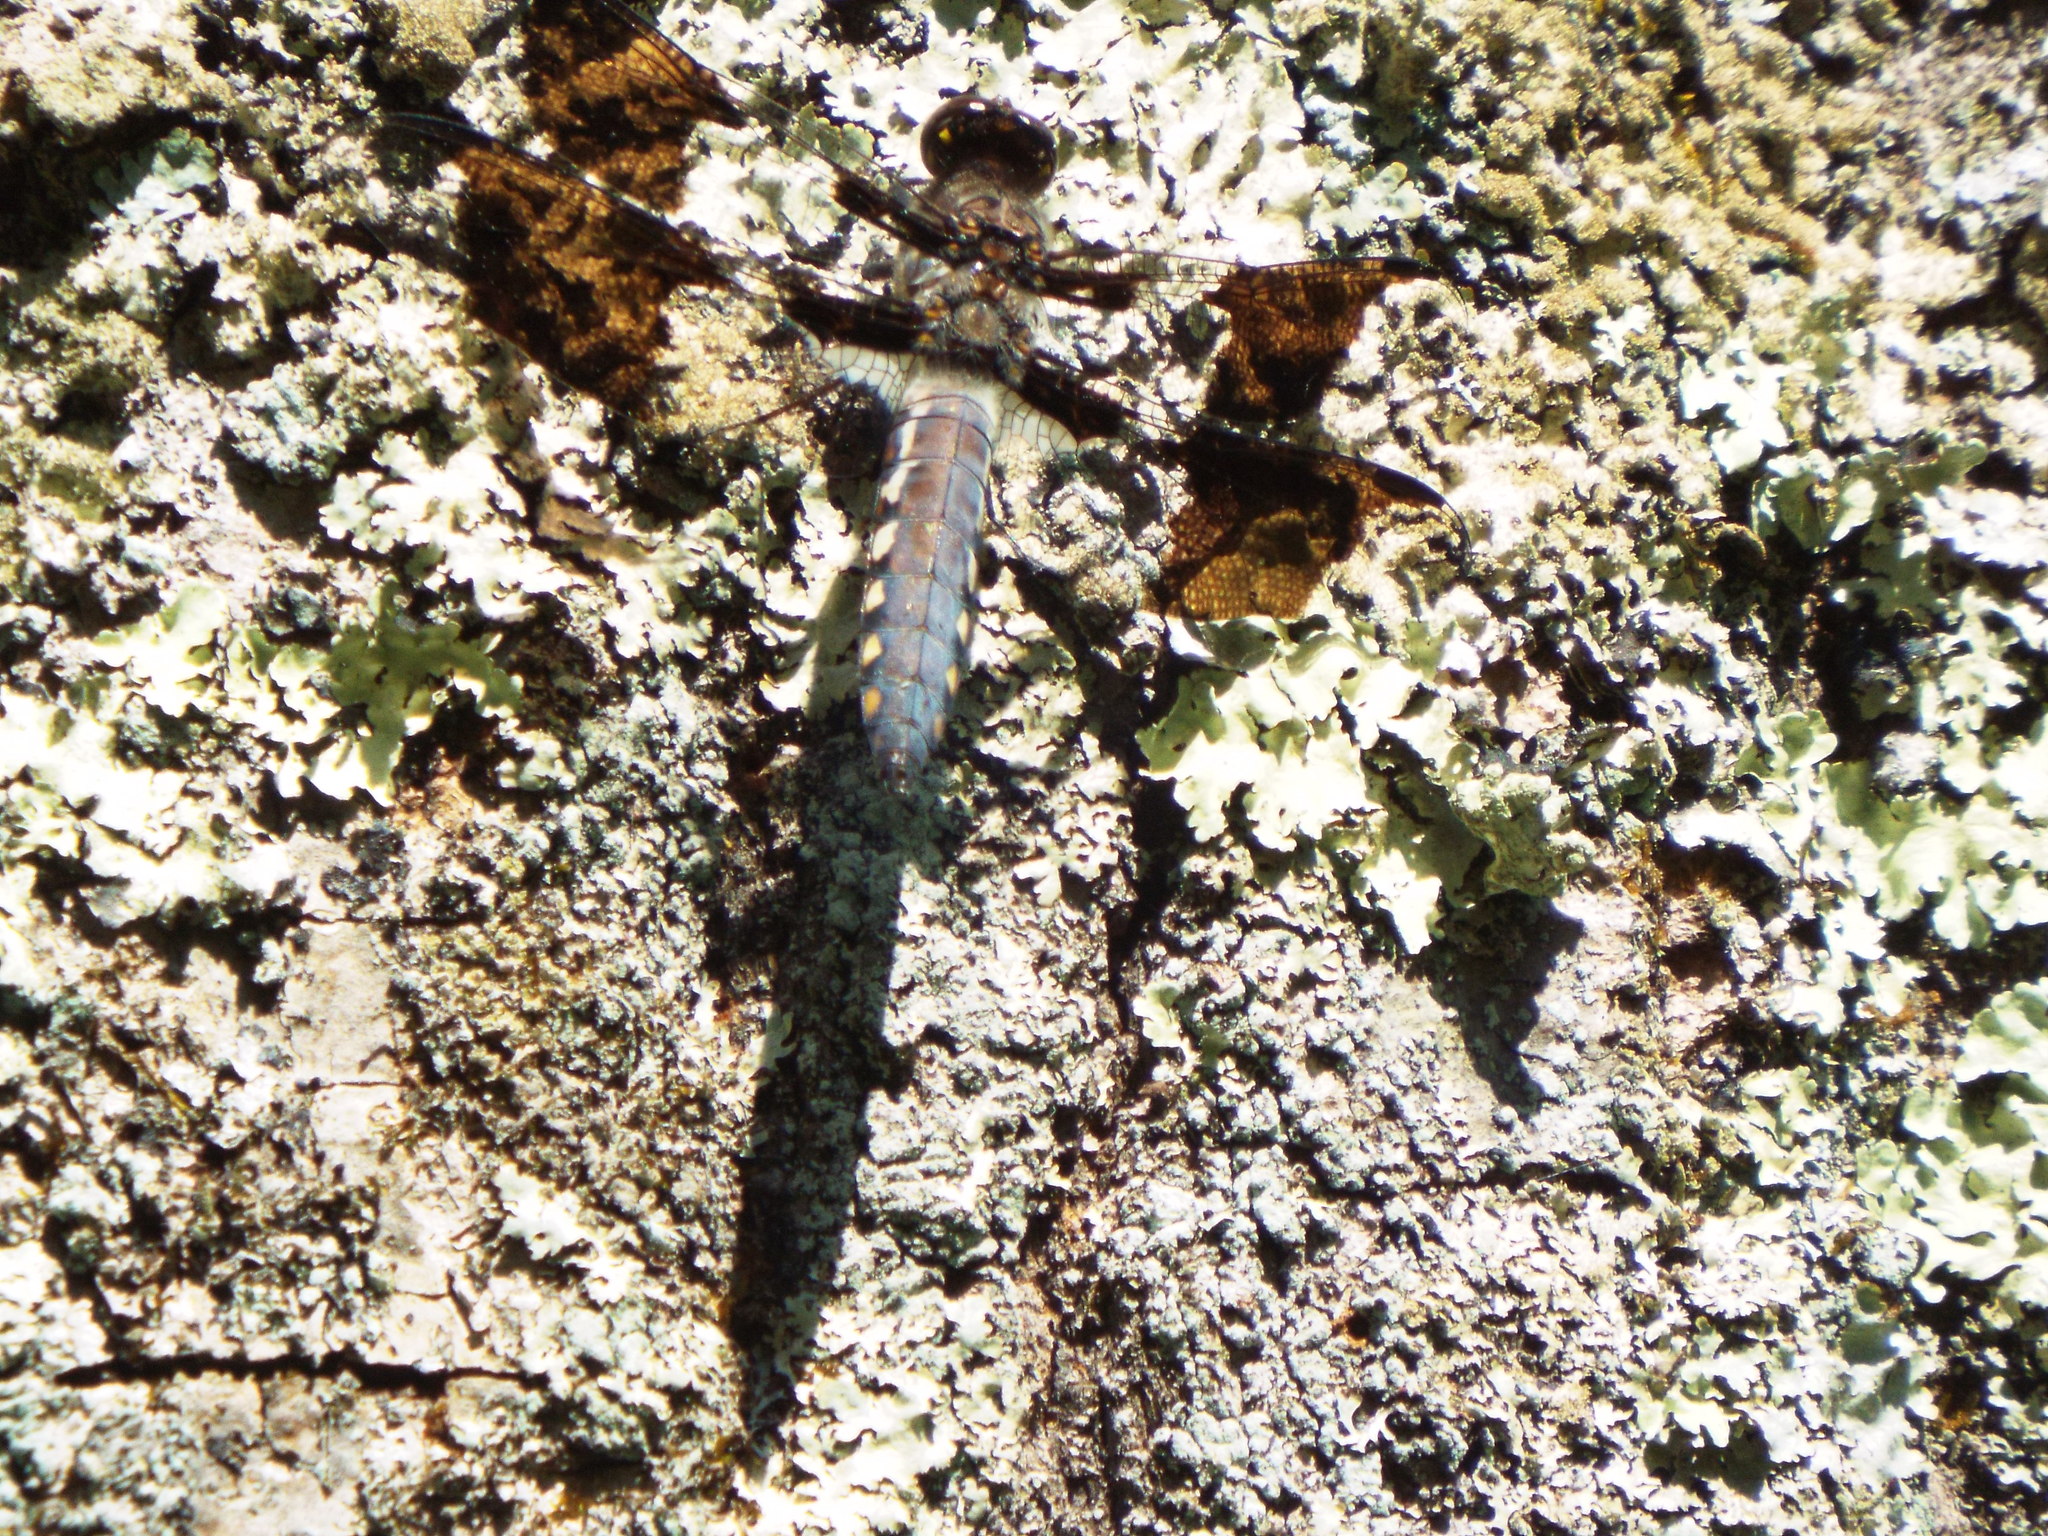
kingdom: Animalia
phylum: Arthropoda
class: Insecta
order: Odonata
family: Libellulidae
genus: Plathemis
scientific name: Plathemis lydia
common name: Common whitetail
